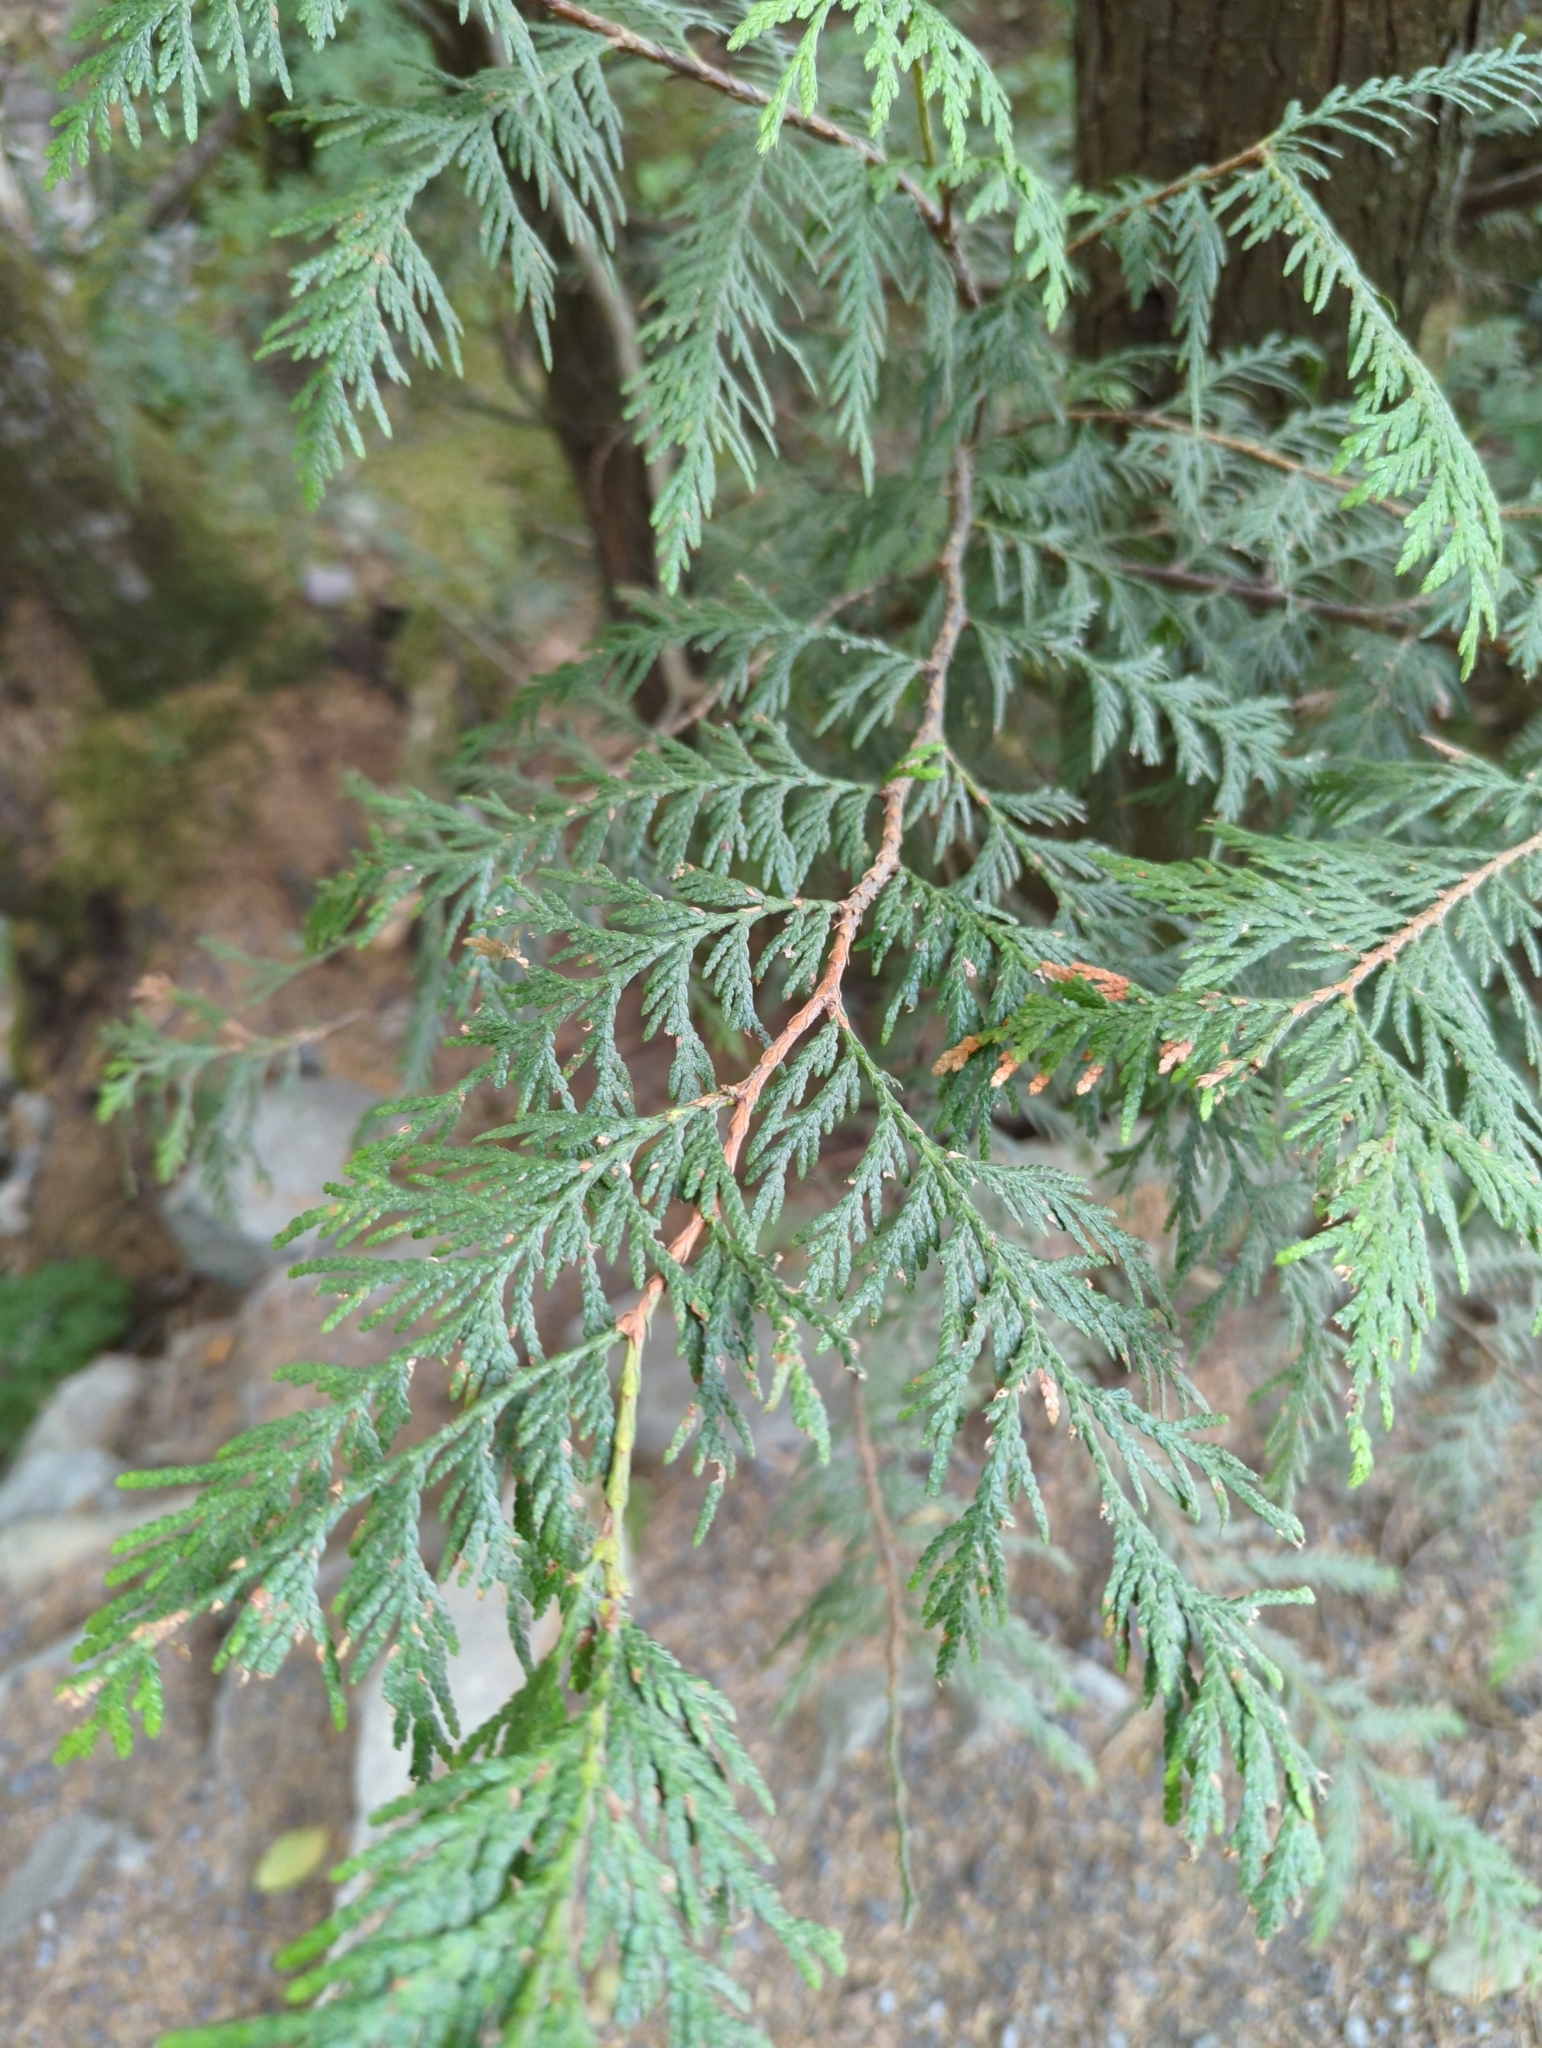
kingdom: Plantae
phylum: Tracheophyta
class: Pinopsida
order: Pinales
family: Cupressaceae
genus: Thuja
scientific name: Thuja plicata
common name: Western red-cedar
